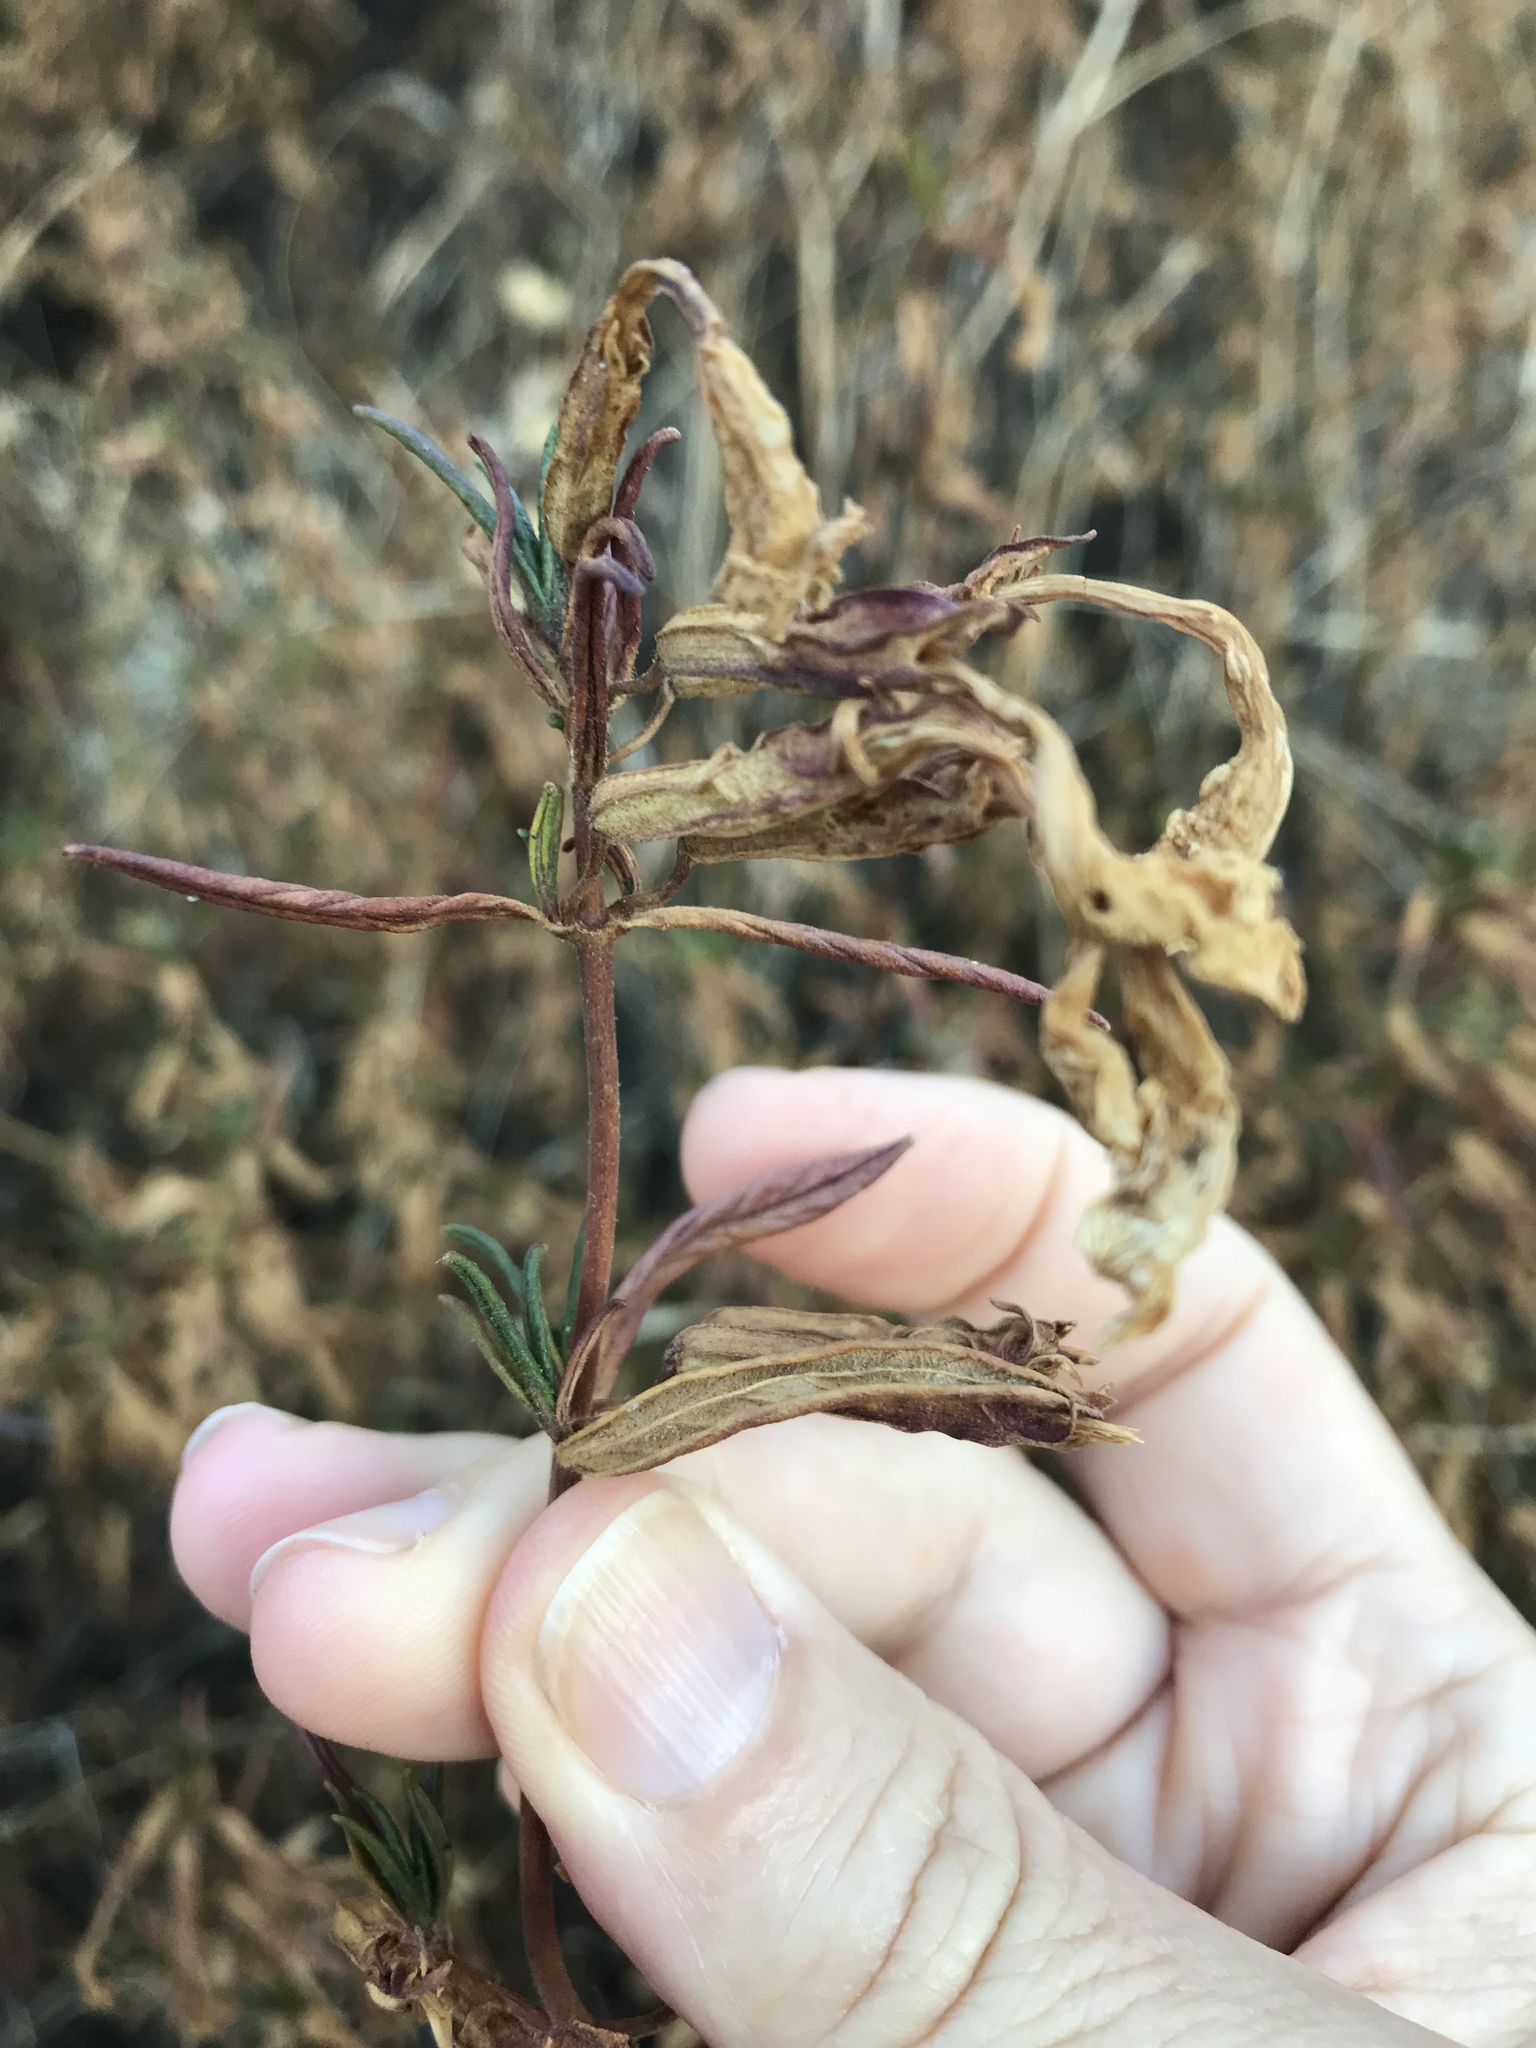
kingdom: Plantae
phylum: Tracheophyta
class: Magnoliopsida
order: Lamiales
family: Phrymaceae
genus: Diplacus
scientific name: Diplacus aurantiacus
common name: Bush monkey-flower
